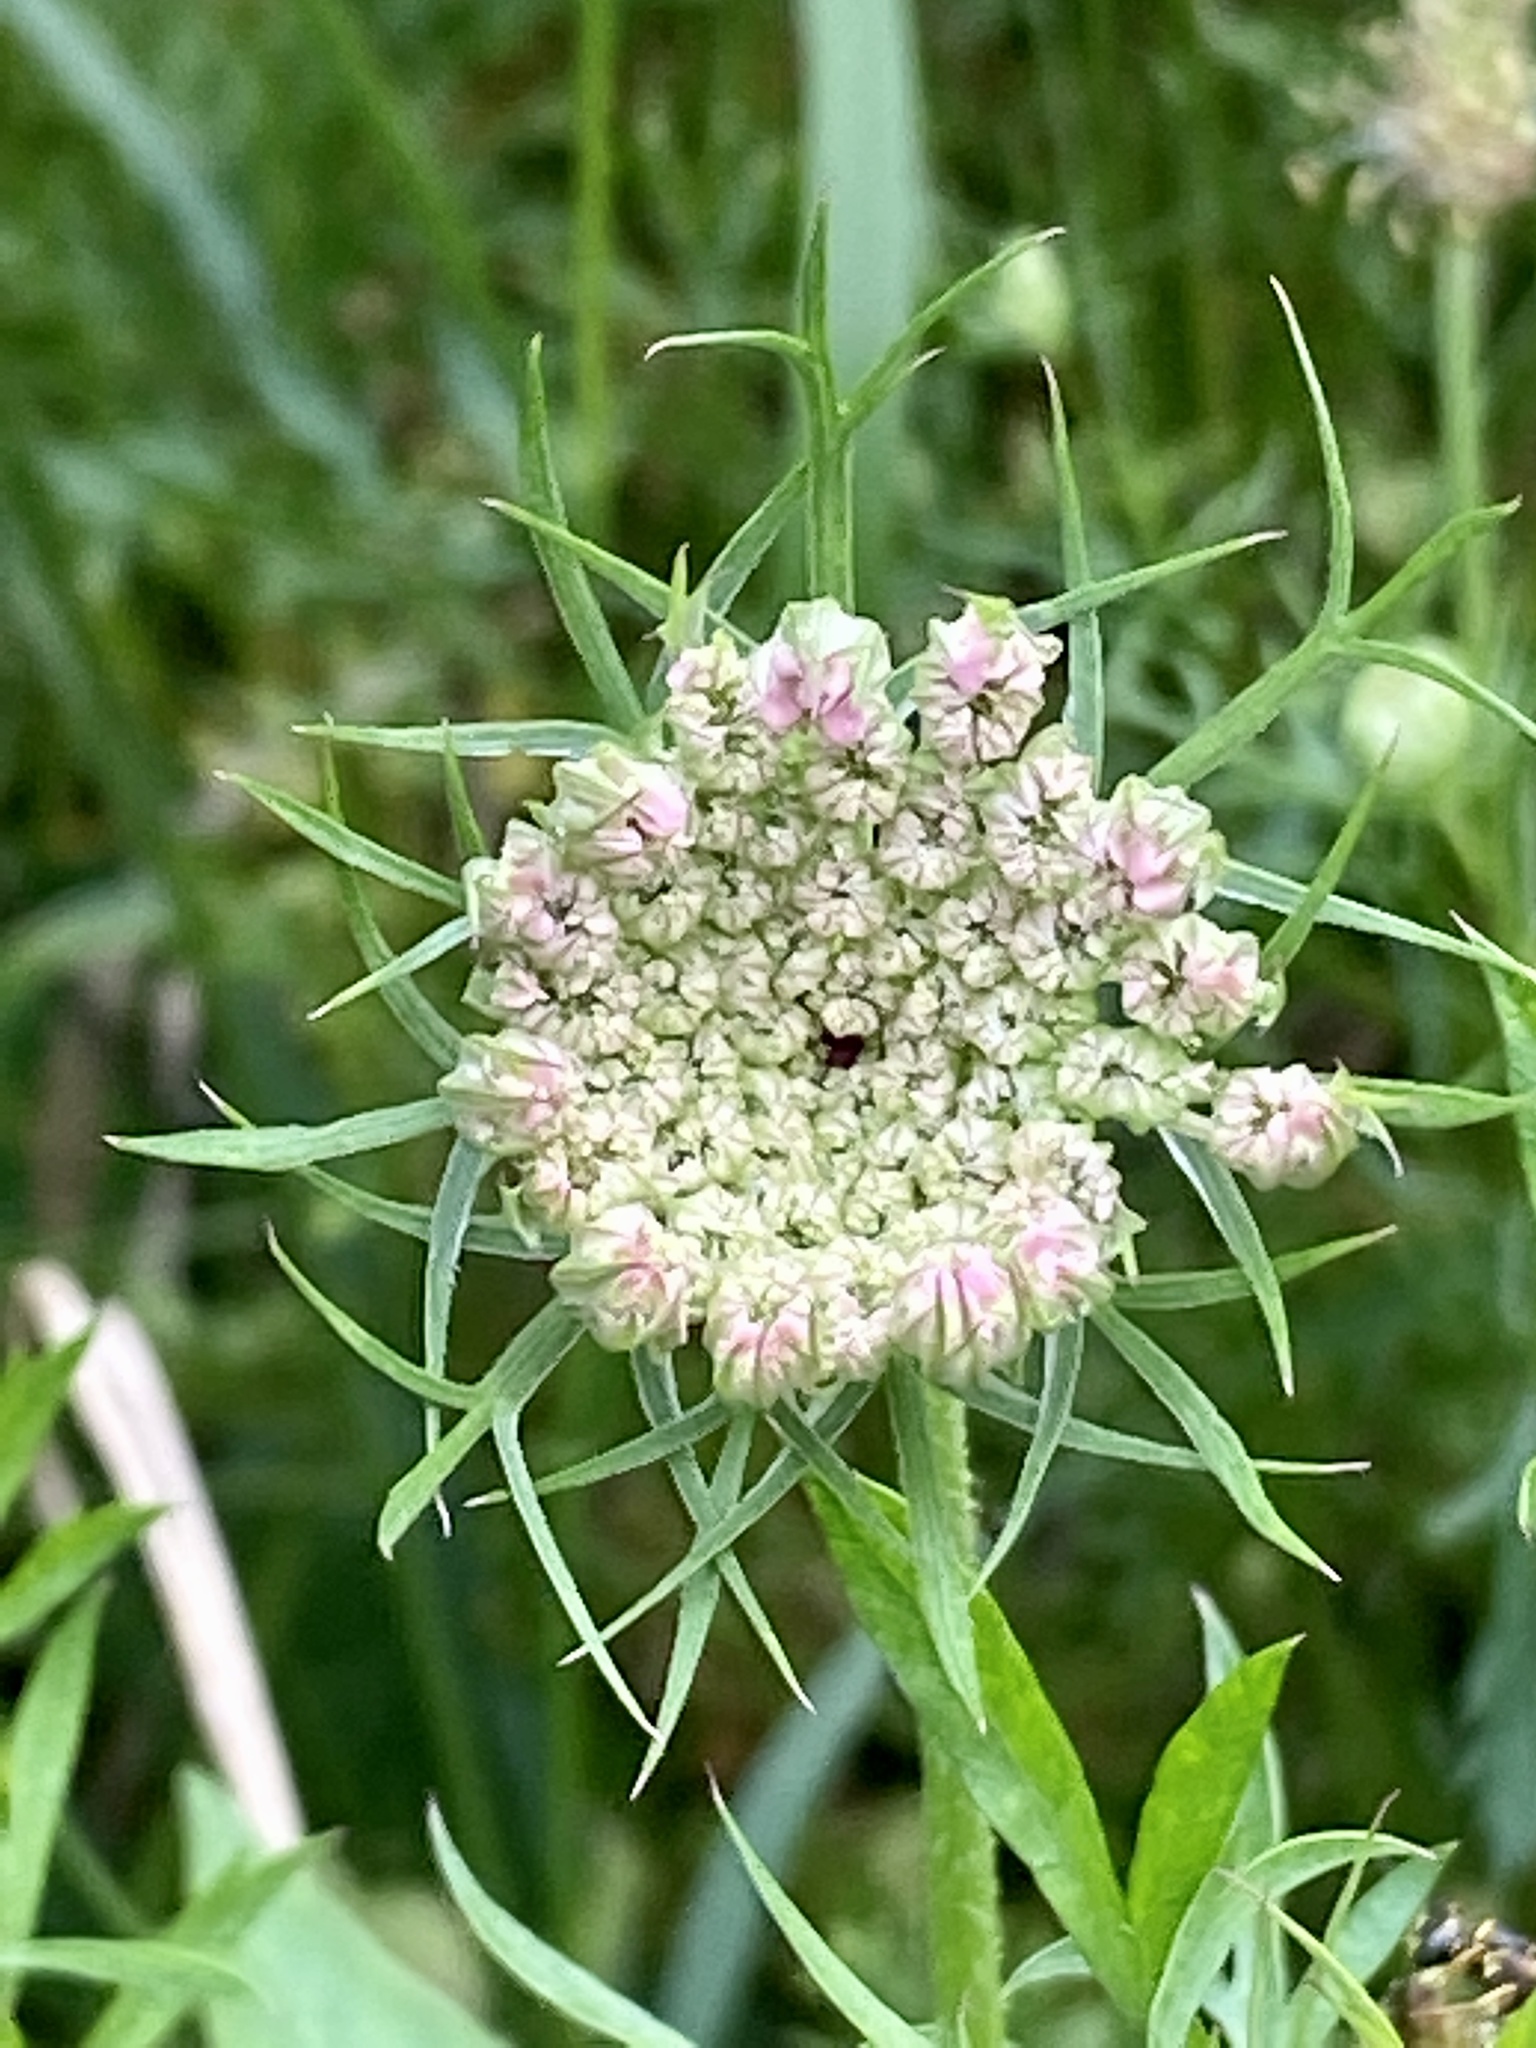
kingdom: Plantae
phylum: Tracheophyta
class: Magnoliopsida
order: Apiales
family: Apiaceae
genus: Daucus
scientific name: Daucus carota
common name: Wild carrot
